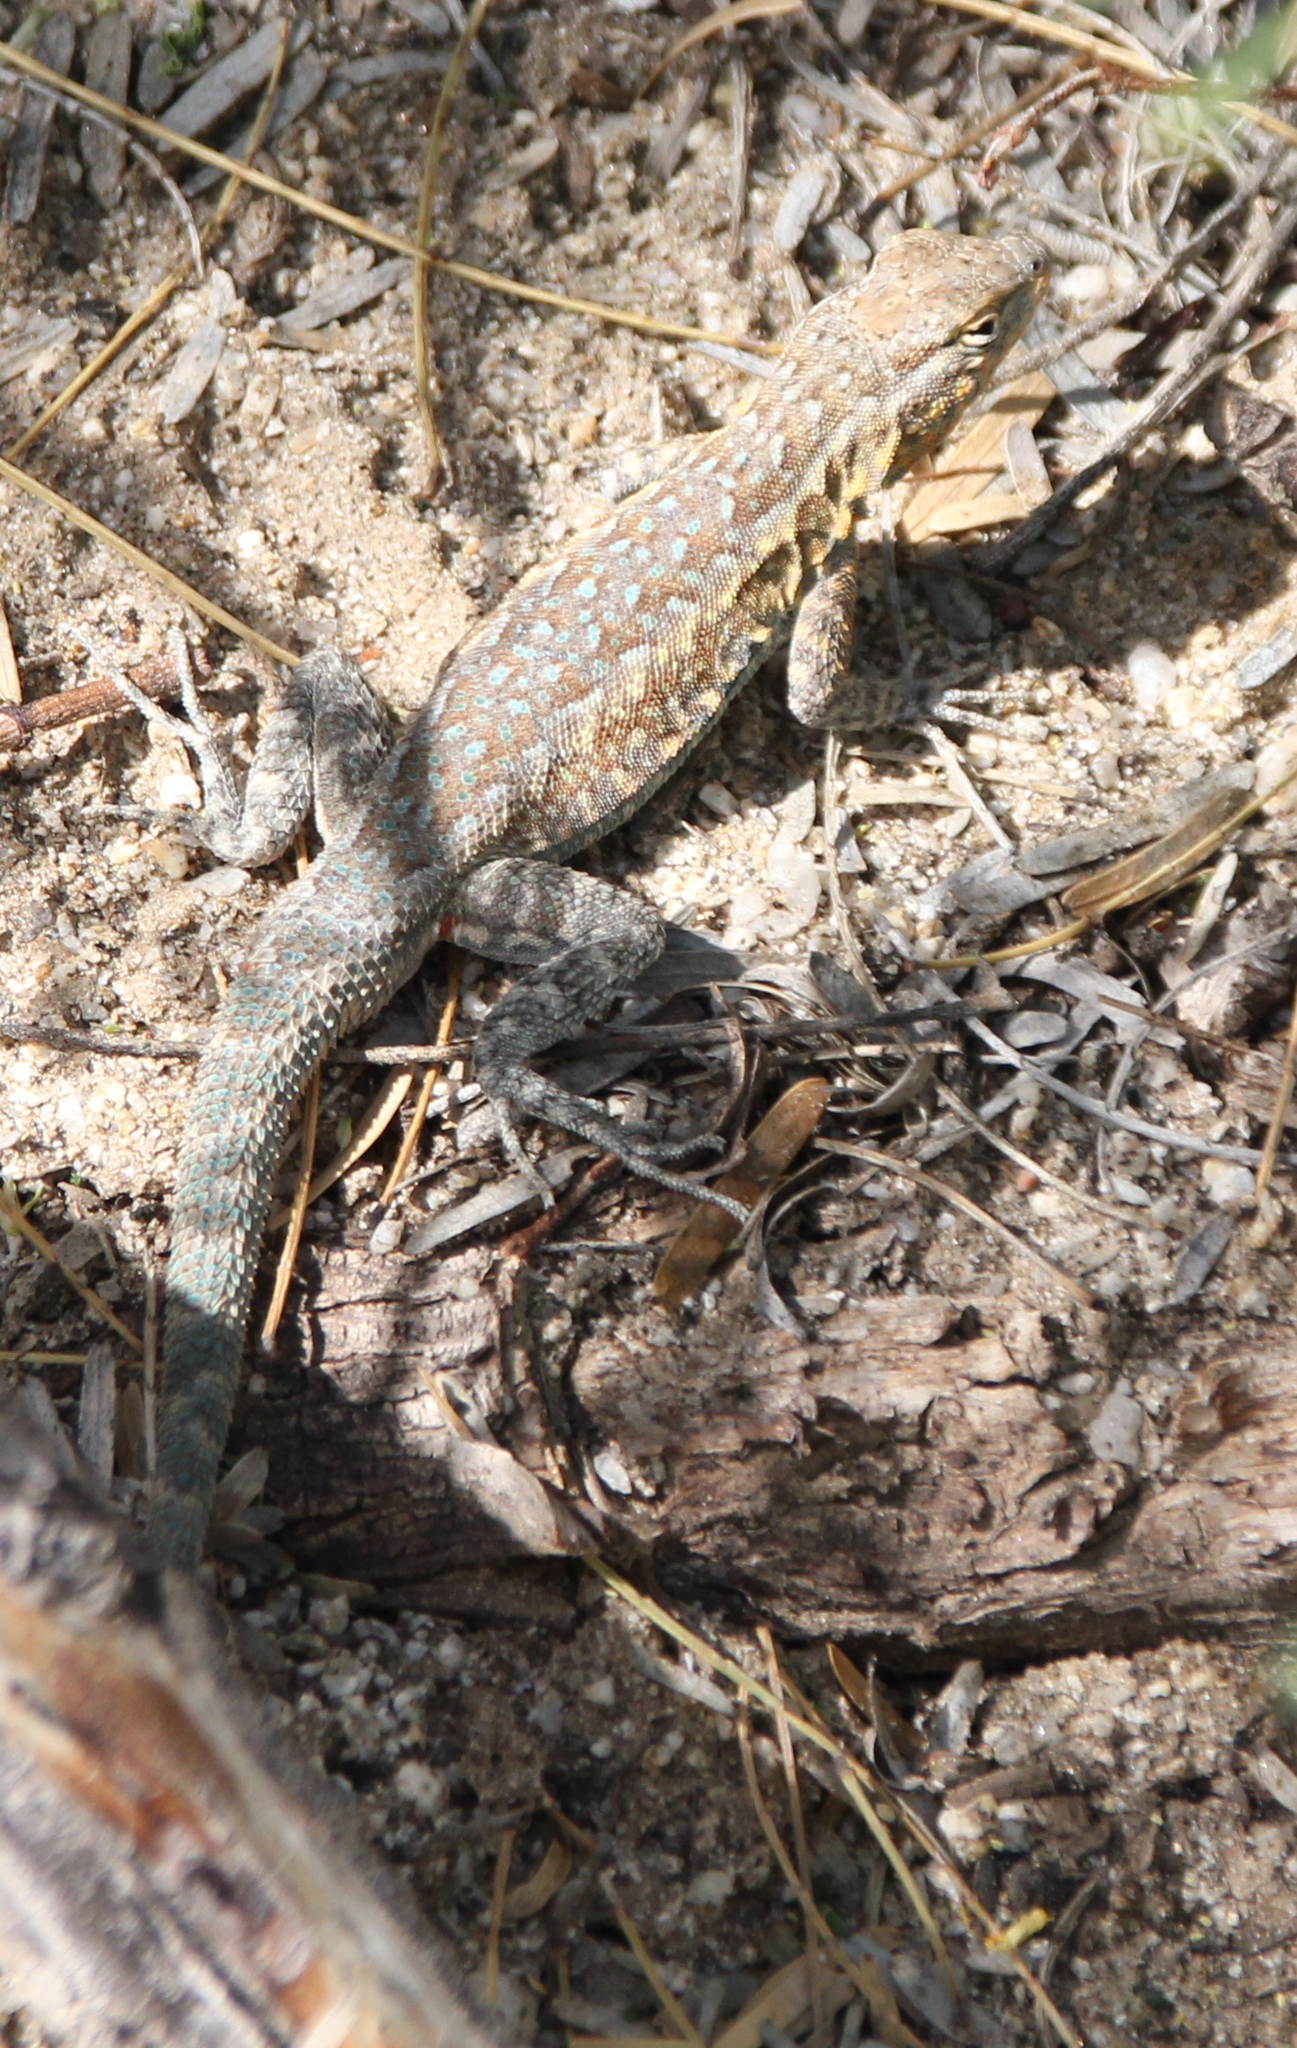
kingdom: Animalia
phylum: Chordata
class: Squamata
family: Phrynosomatidae
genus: Uta
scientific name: Uta stansburiana
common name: Side-blotched lizard
